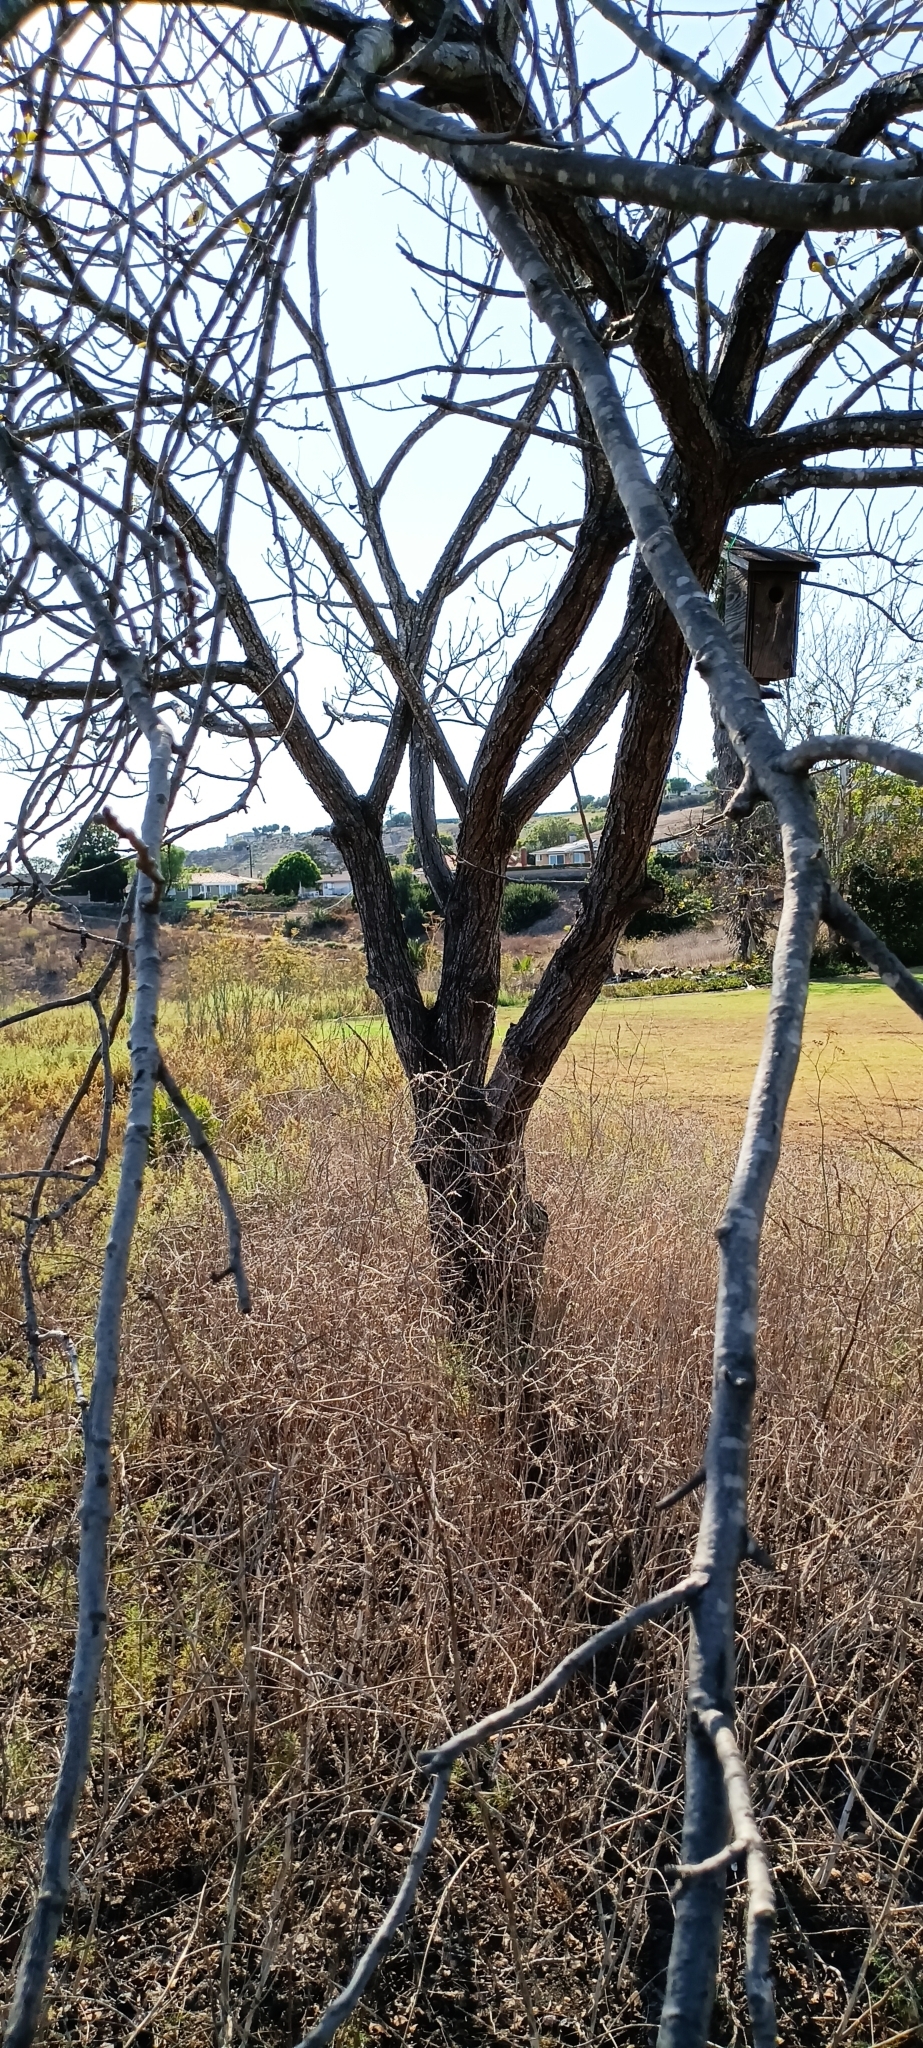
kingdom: Plantae
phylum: Tracheophyta
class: Magnoliopsida
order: Fagales
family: Juglandaceae
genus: Juglans
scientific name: Juglans californica
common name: Southern california black walnut
